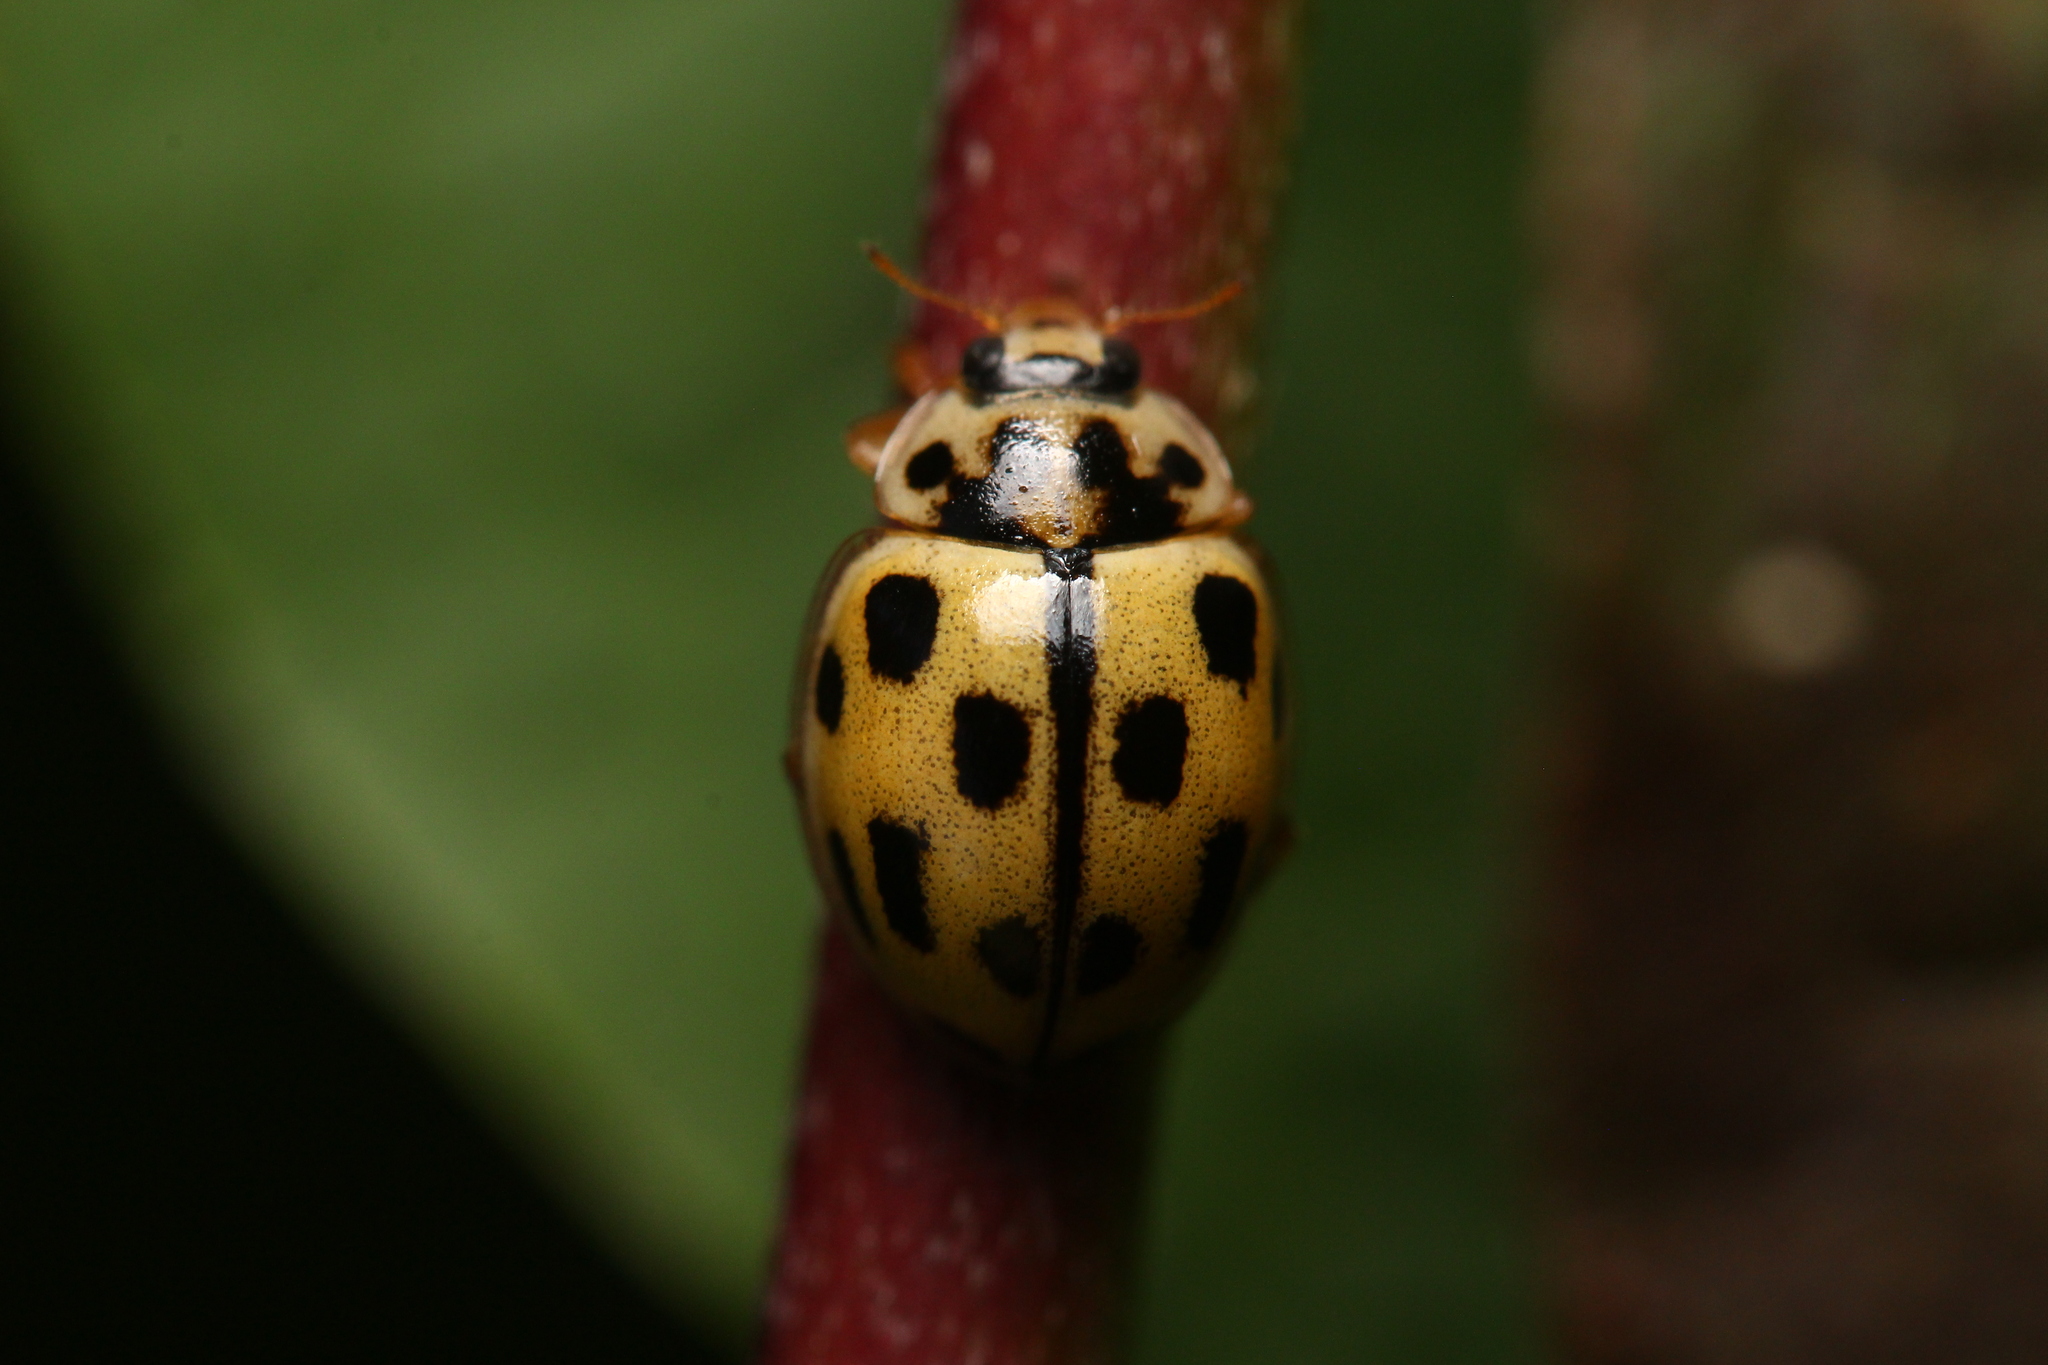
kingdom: Animalia
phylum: Arthropoda
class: Insecta
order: Coleoptera
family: Coccinellidae
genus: Propylaea
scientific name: Propylaea quatuordecimpunctata
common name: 14-spotted ladybird beetle
